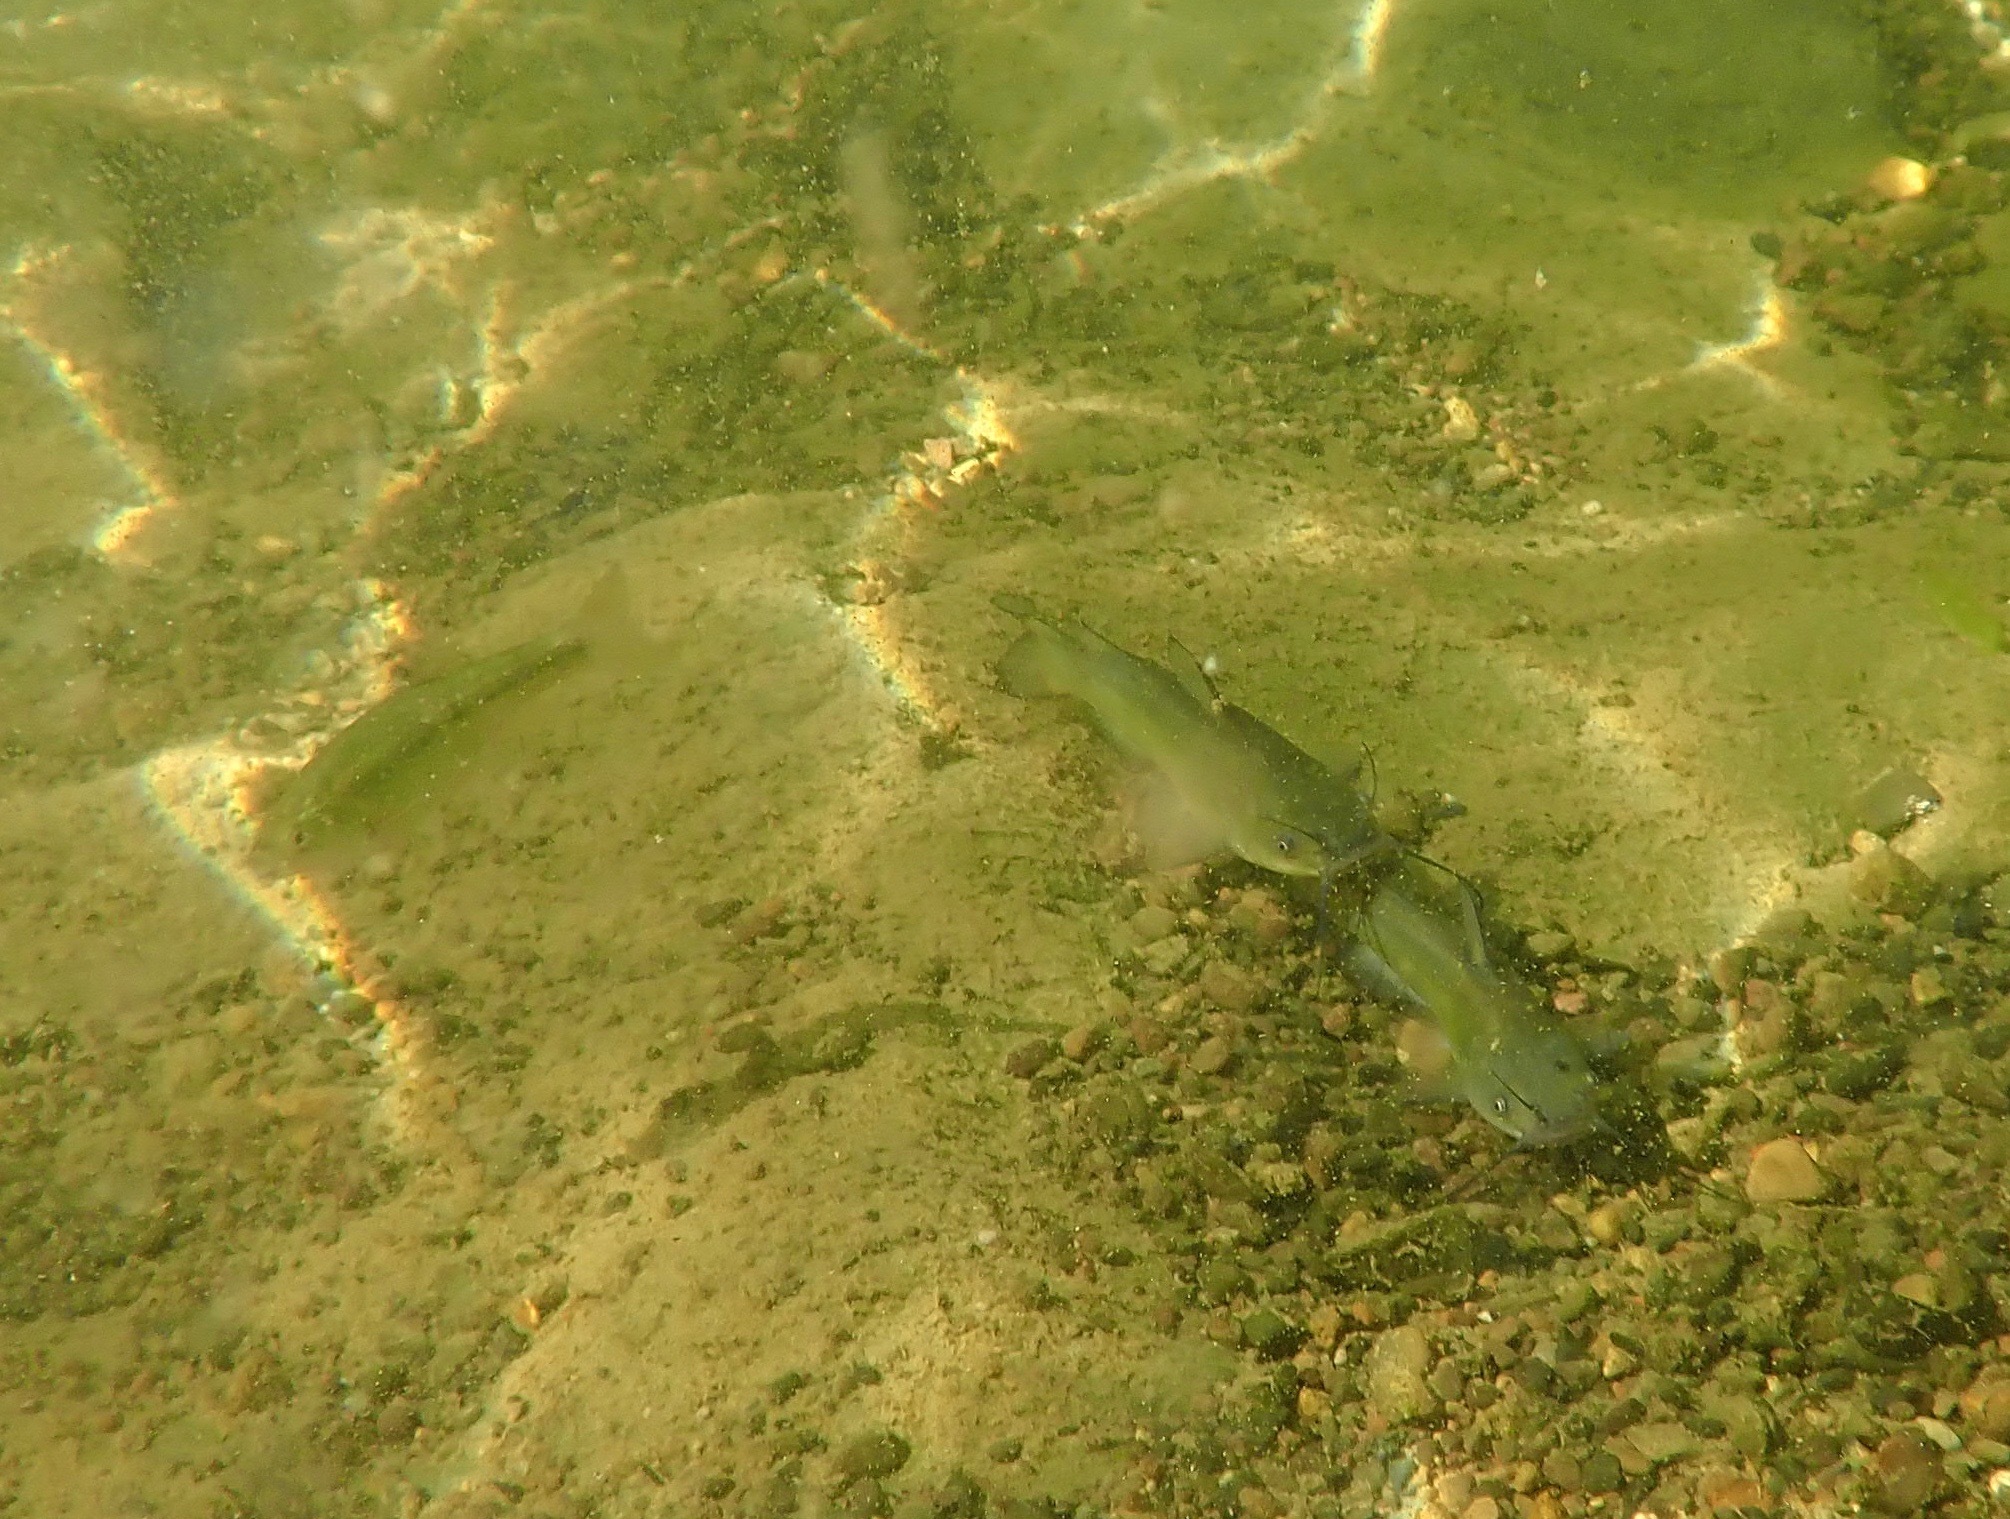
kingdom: Animalia
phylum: Chordata
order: Siluriformes
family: Ictaluridae
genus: Ameiurus
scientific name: Ameiurus melas
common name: Black bullhead
